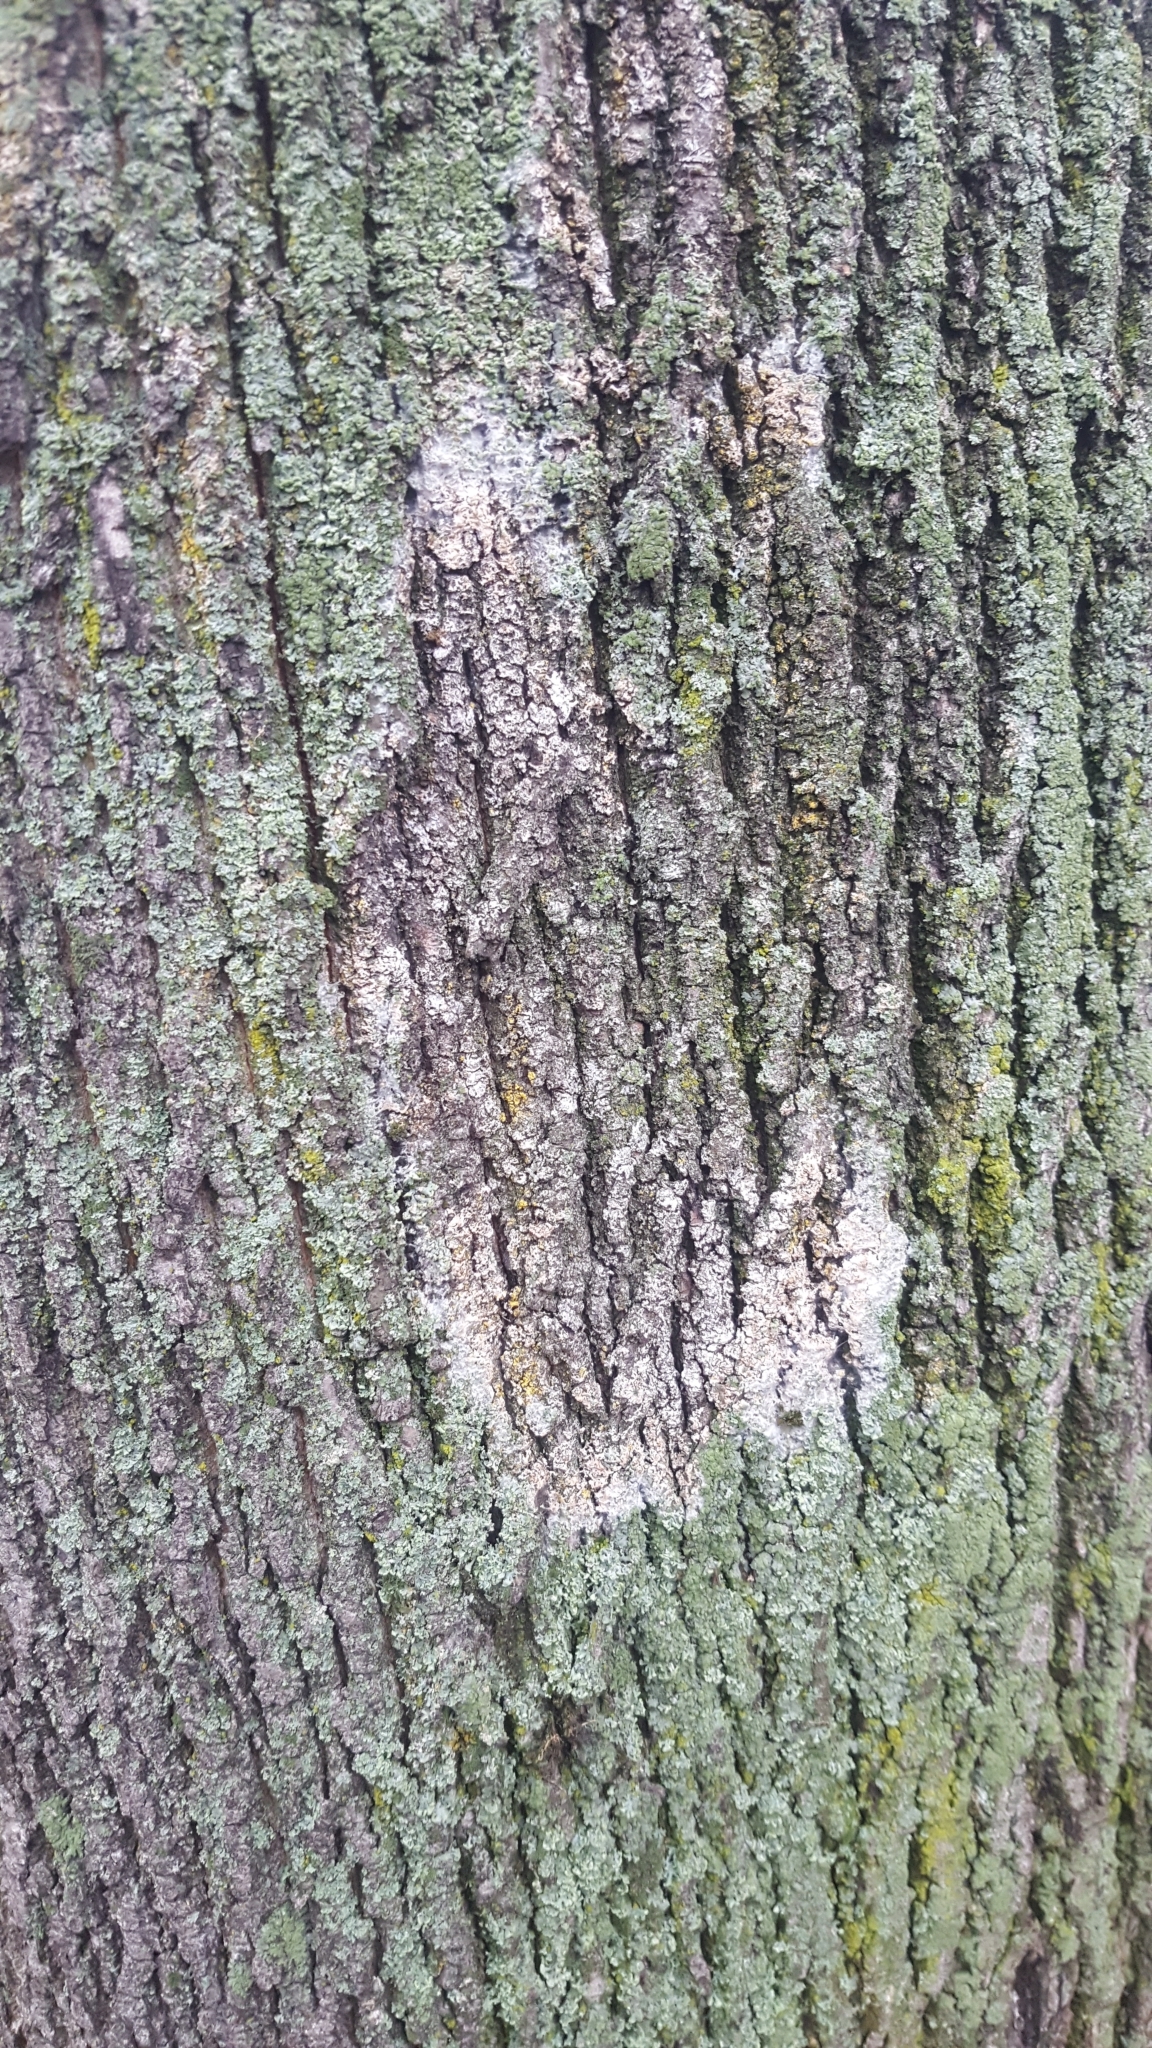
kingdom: Fungi
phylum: Basidiomycota
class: Agaricomycetes
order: Atheliales
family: Atheliaceae
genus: Athelia
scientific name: Athelia arachnoidea
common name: Candelabra duster
